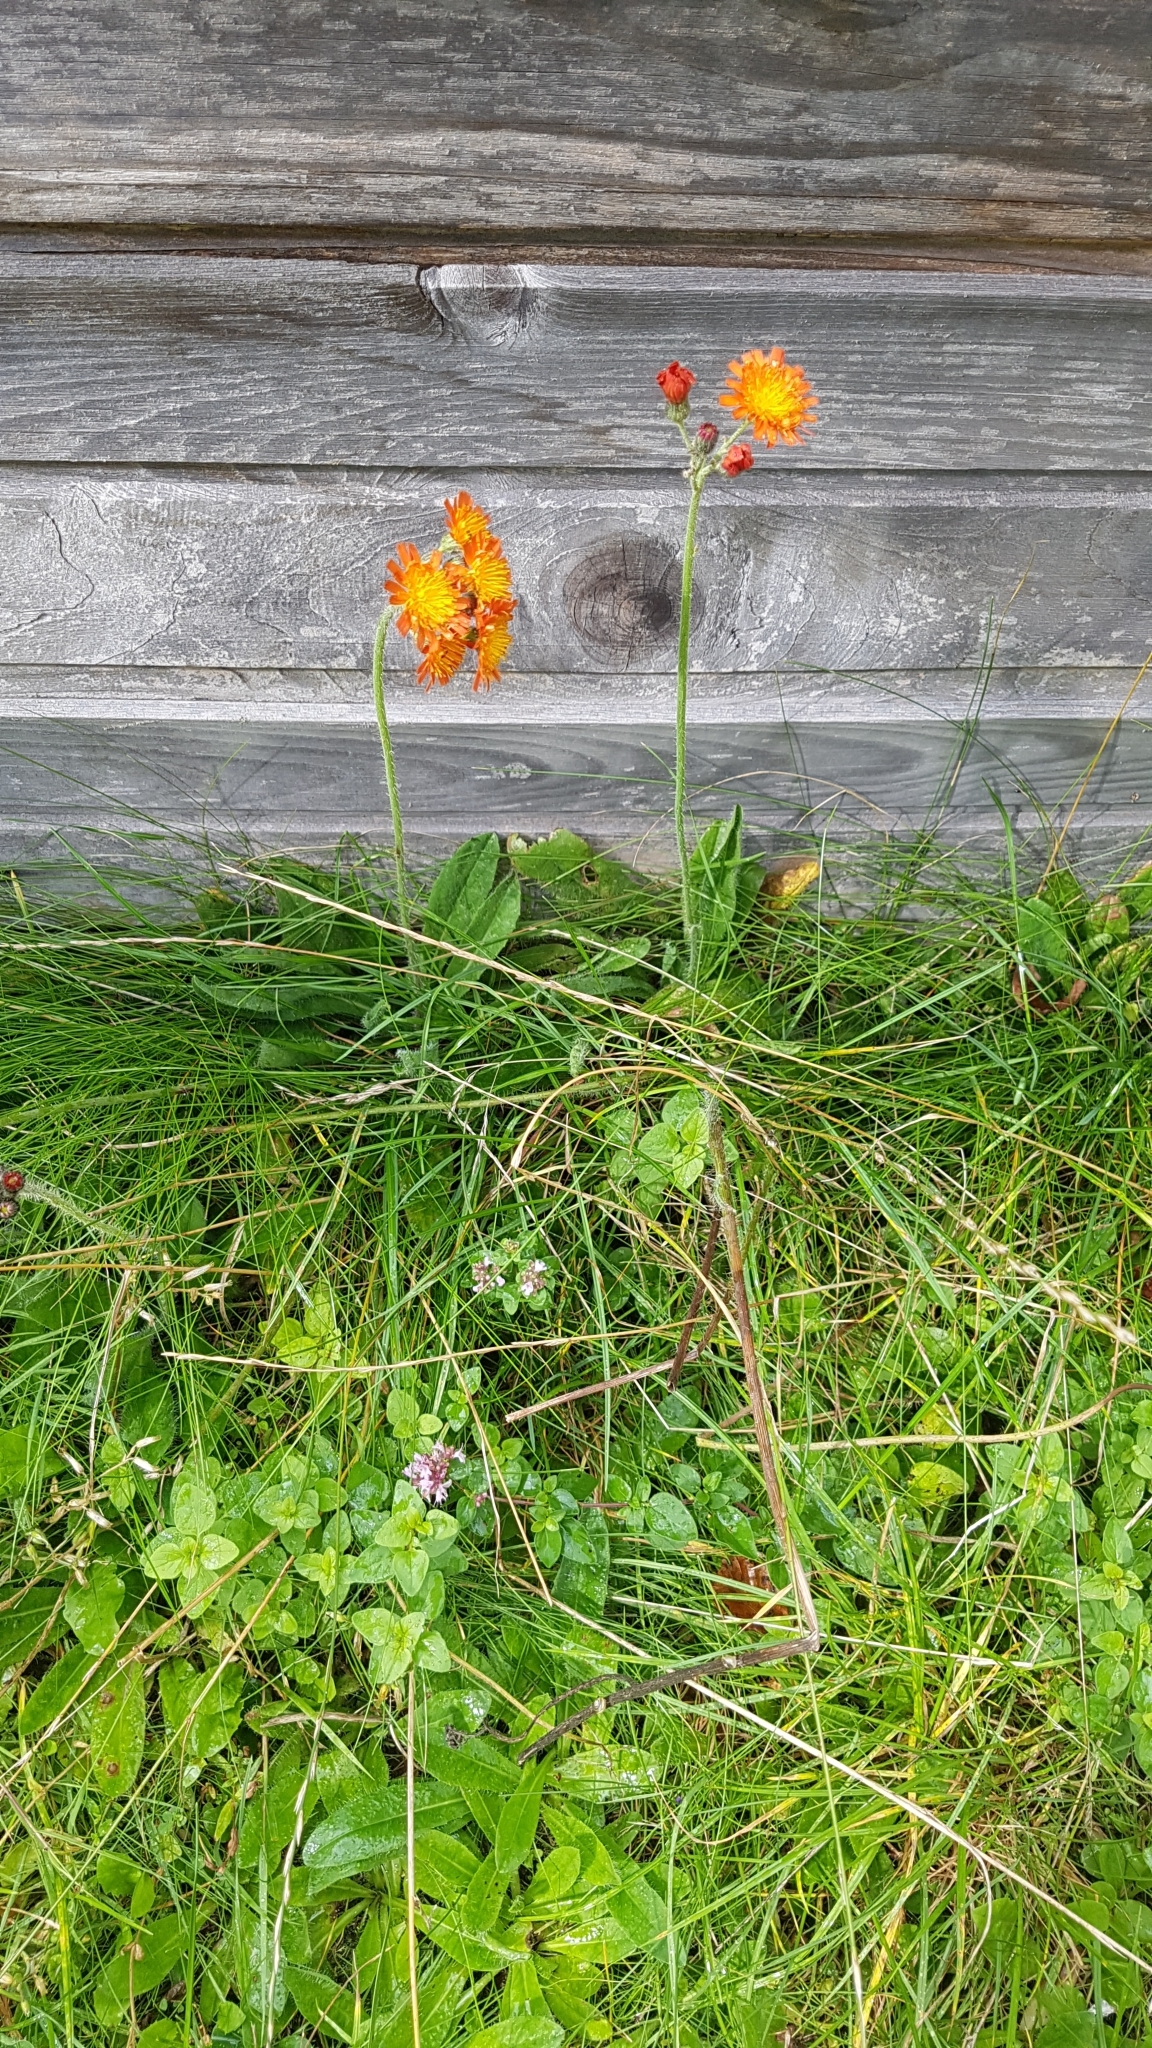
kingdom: Plantae
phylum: Tracheophyta
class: Magnoliopsida
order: Asterales
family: Asteraceae
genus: Pilosella
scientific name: Pilosella aurantiaca
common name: Fox-and-cubs
